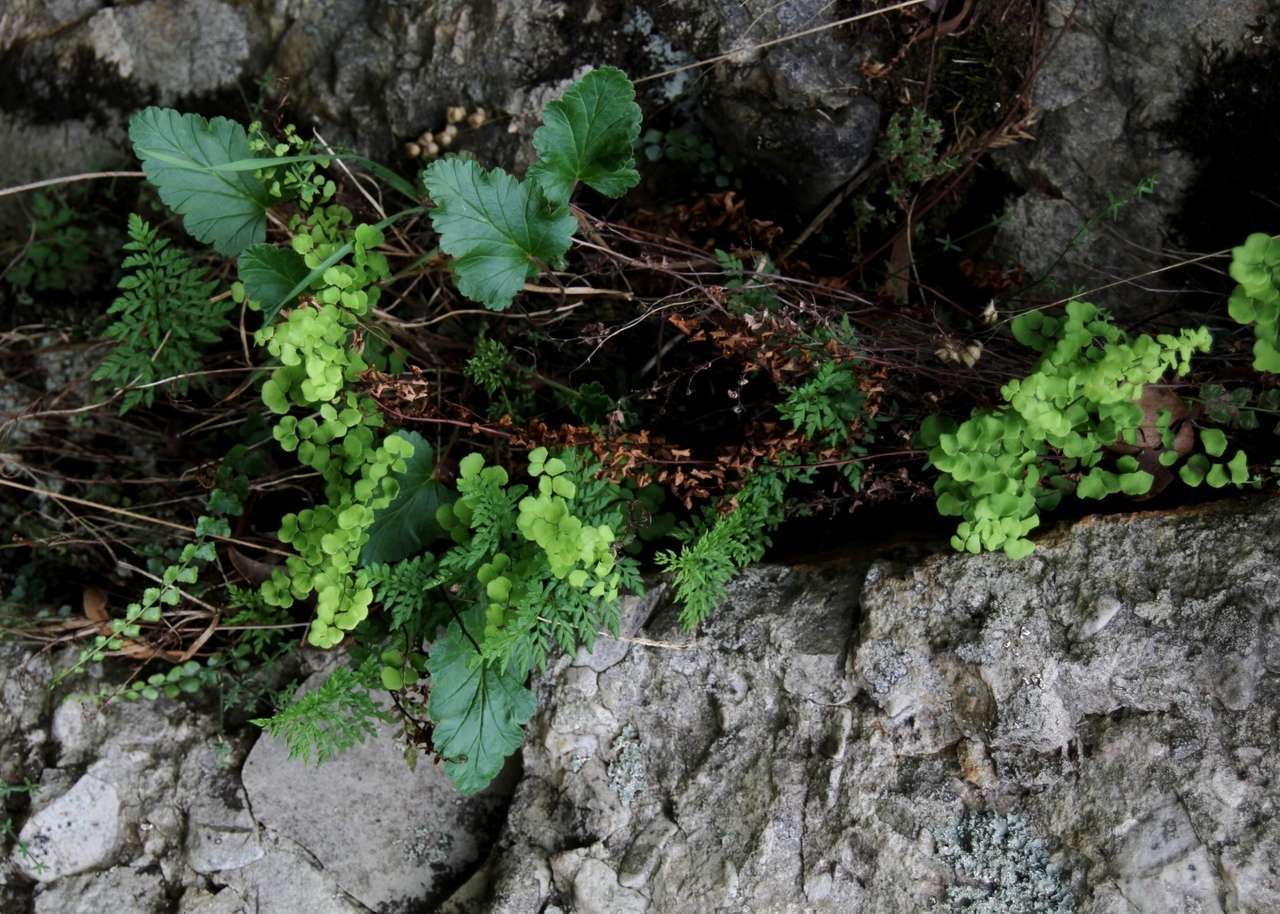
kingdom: Plantae
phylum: Tracheophyta
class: Polypodiopsida
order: Polypodiales
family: Pteridaceae
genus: Adiantum
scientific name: Adiantum aethiopicum
